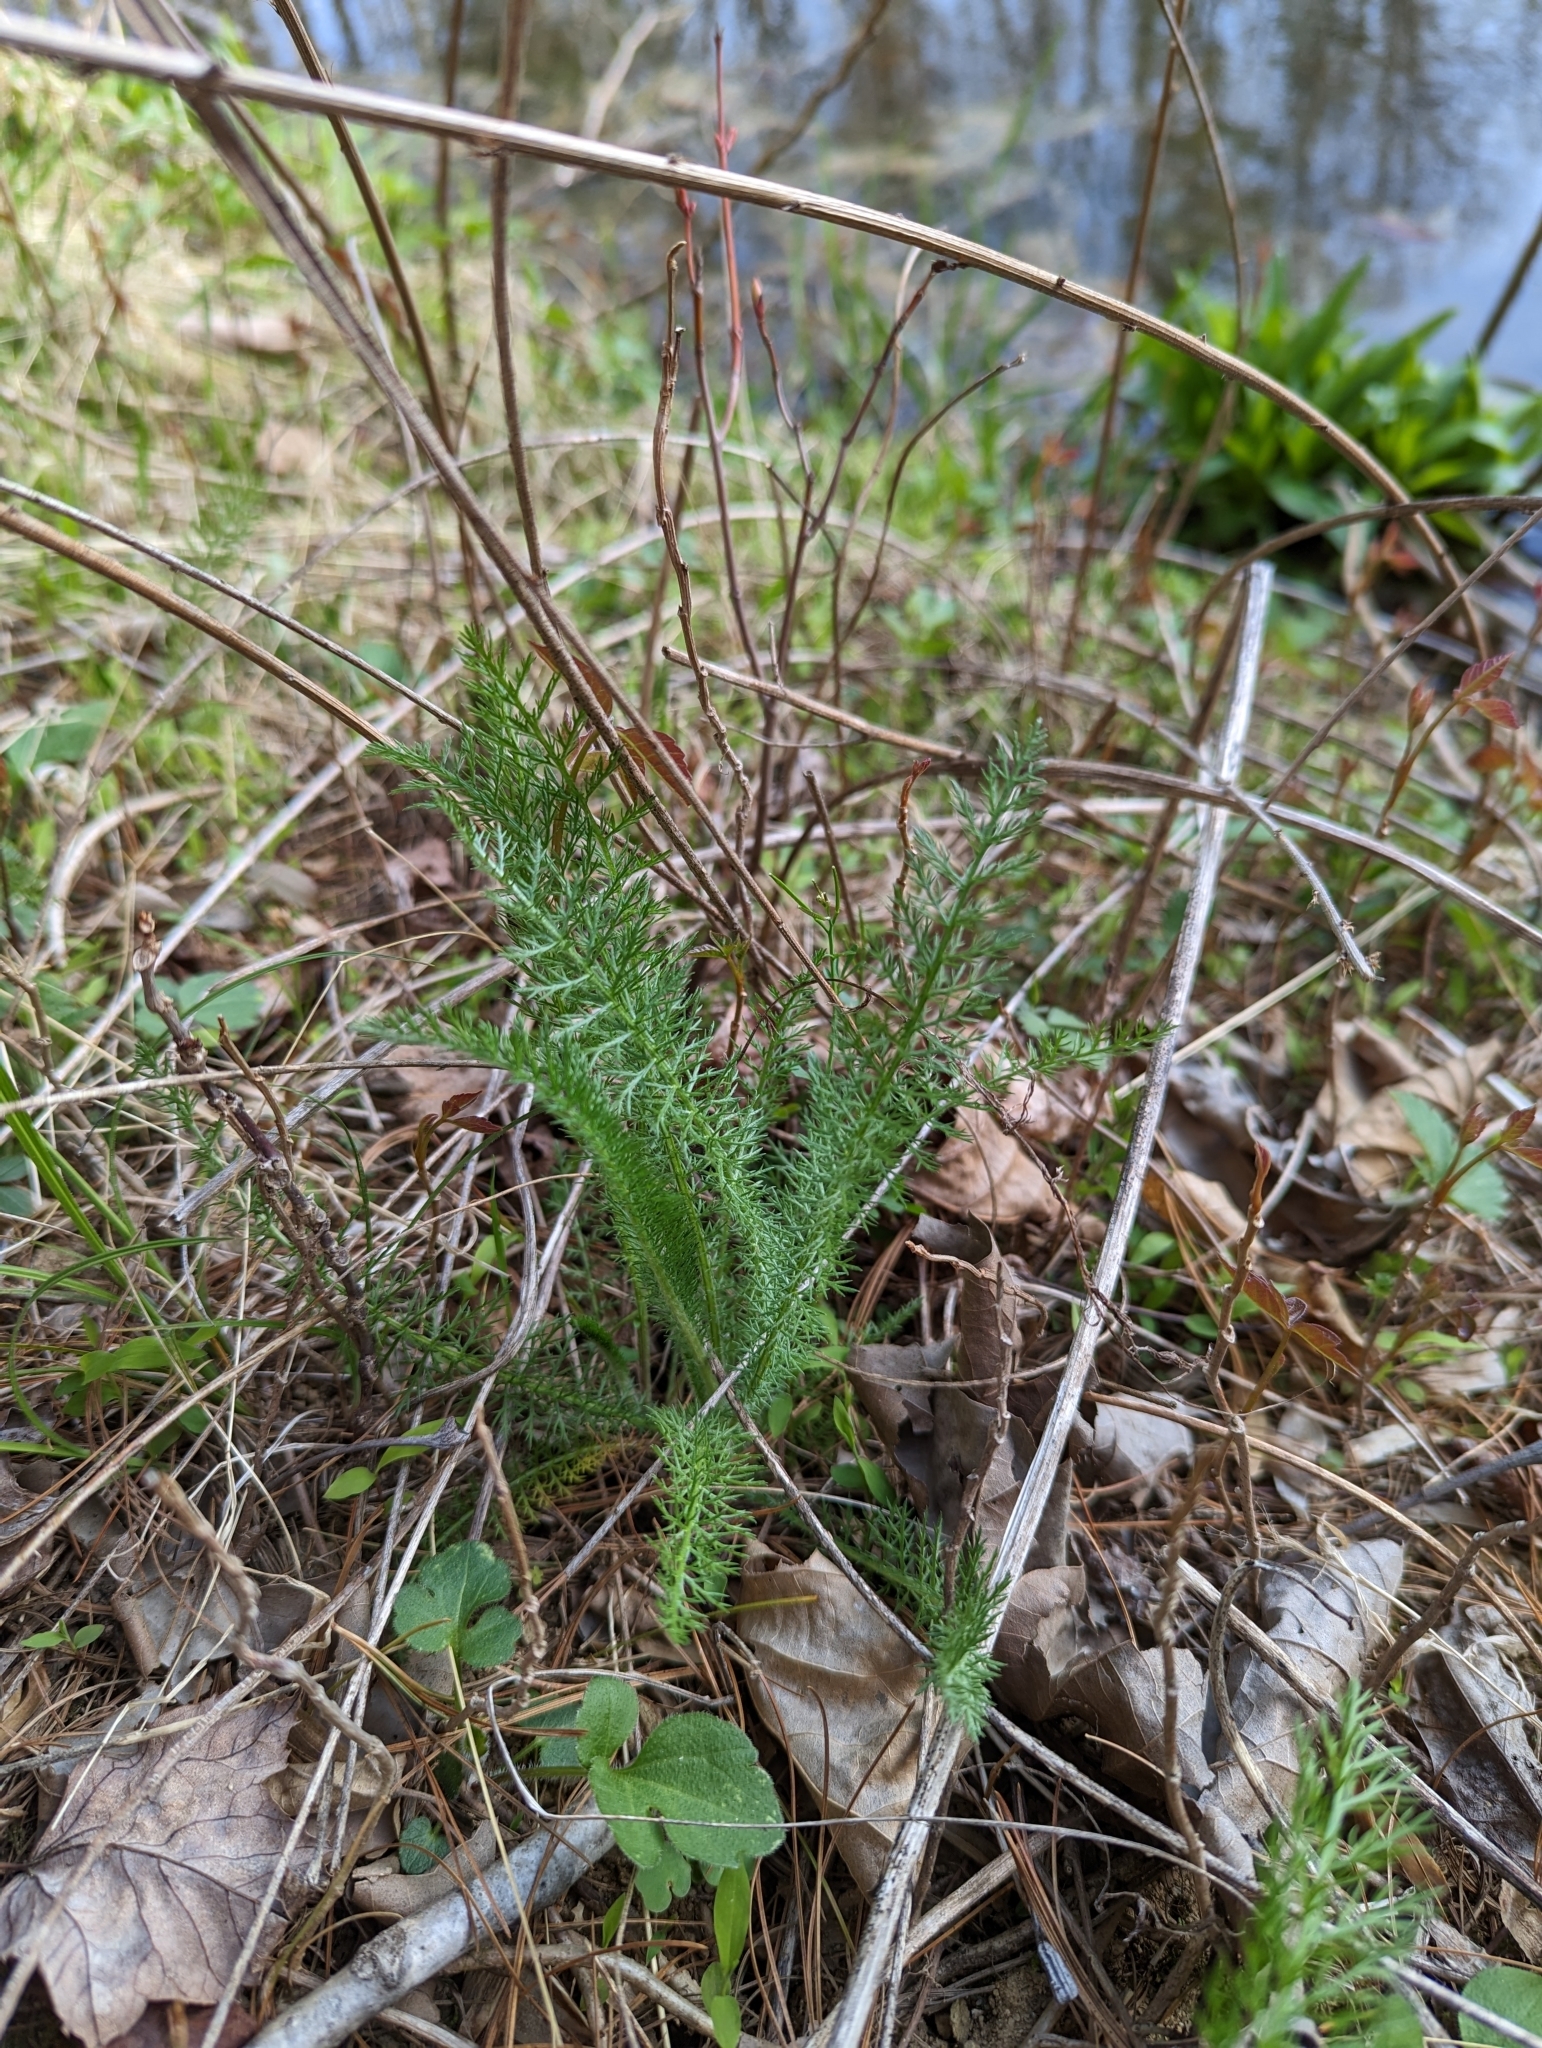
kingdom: Plantae
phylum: Tracheophyta
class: Magnoliopsida
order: Asterales
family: Asteraceae
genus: Achillea
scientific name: Achillea millefolium
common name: Yarrow
